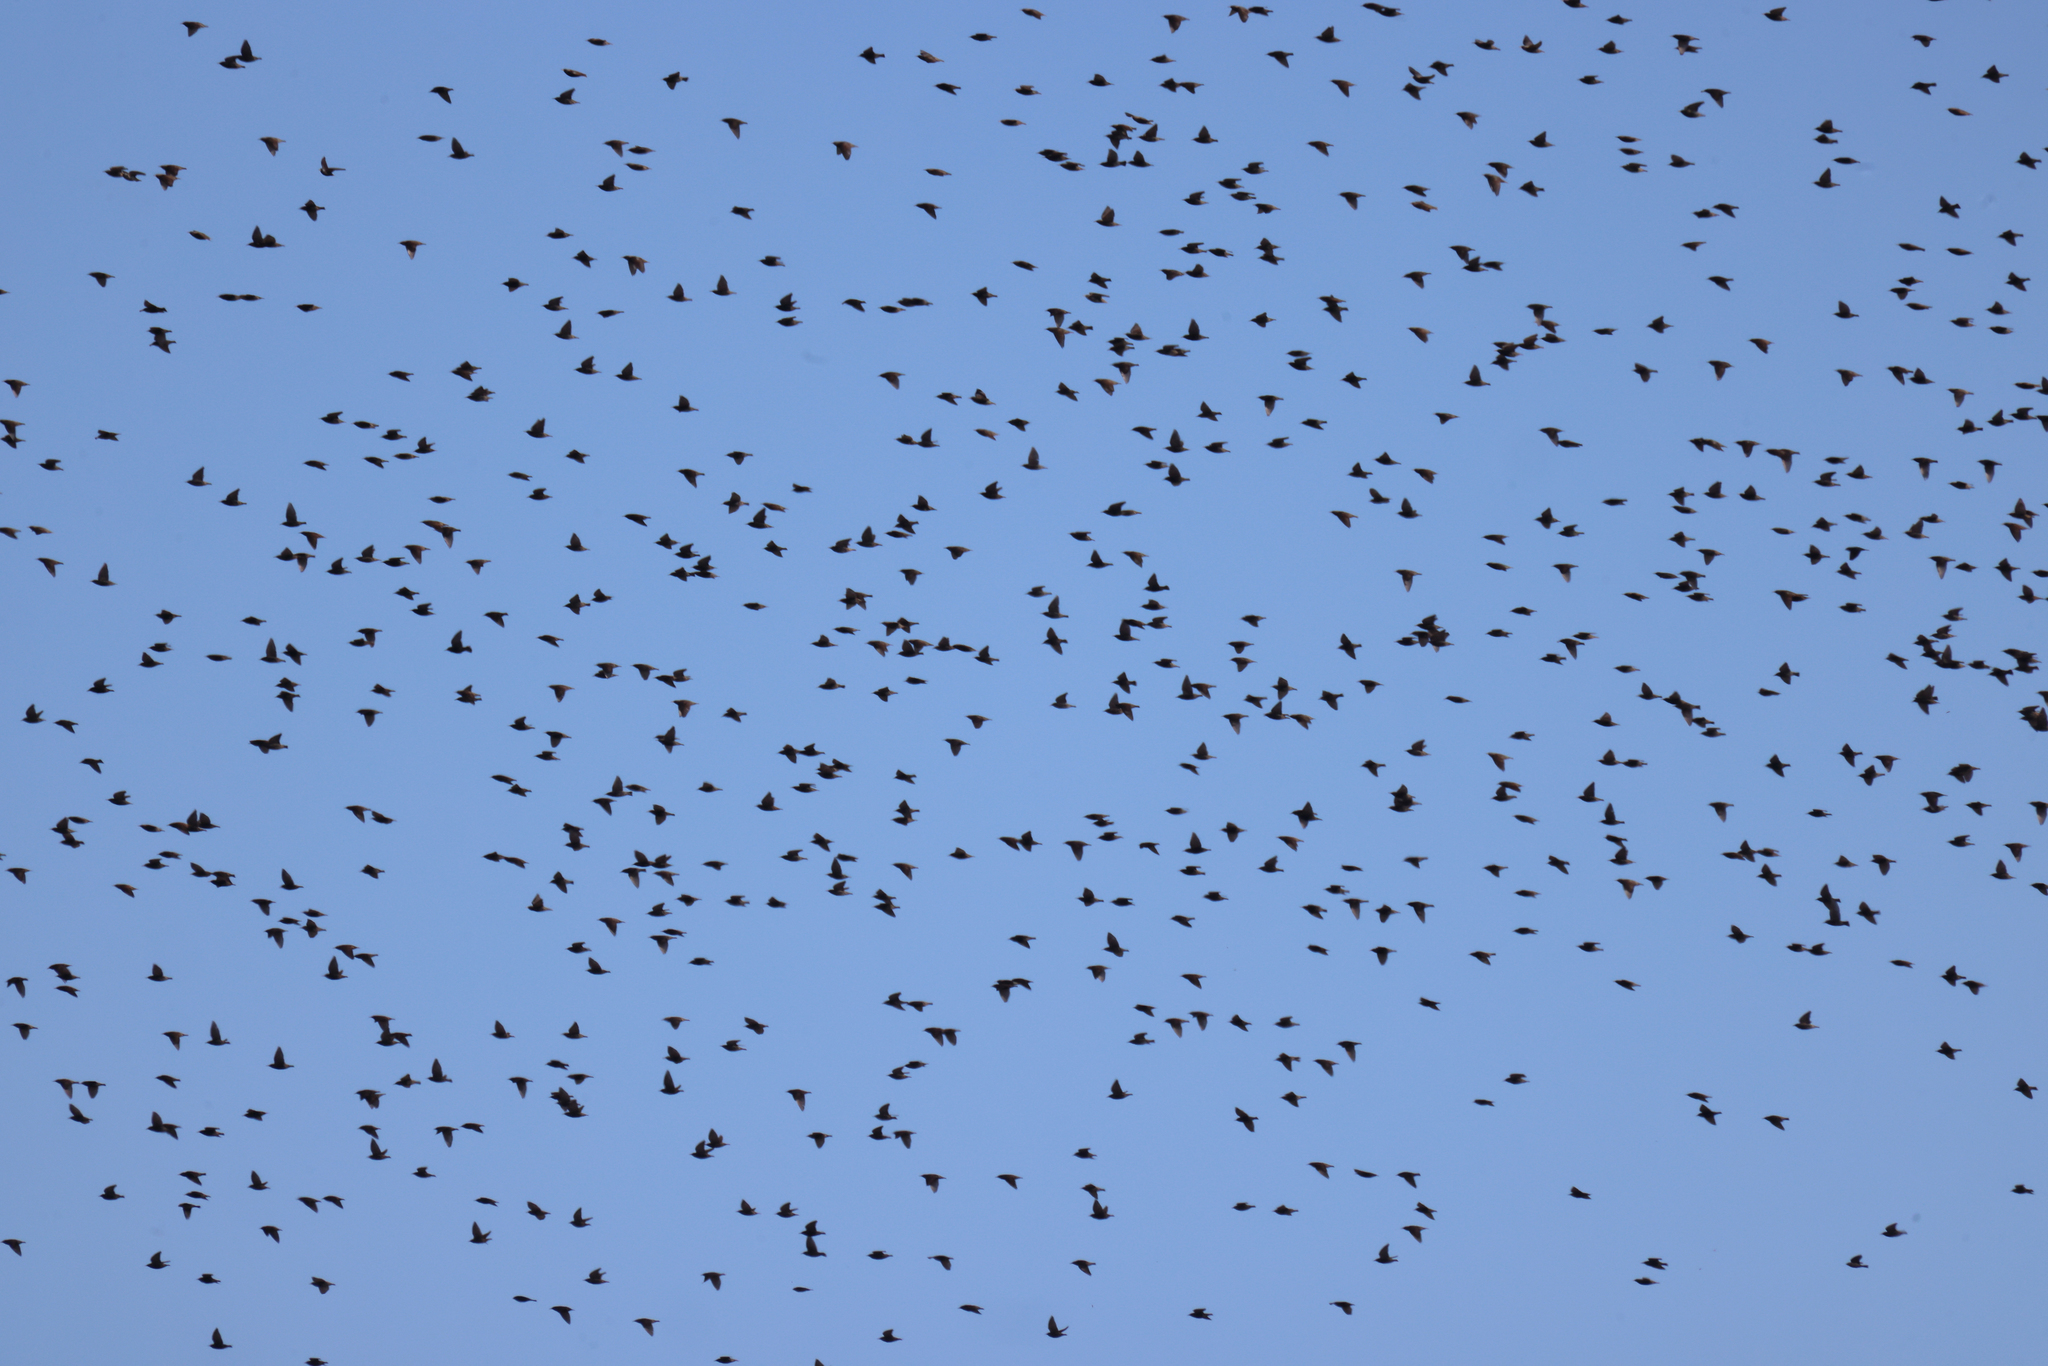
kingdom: Animalia
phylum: Chordata
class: Aves
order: Passeriformes
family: Sturnidae
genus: Sturnus
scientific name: Sturnus vulgaris
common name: Common starling
